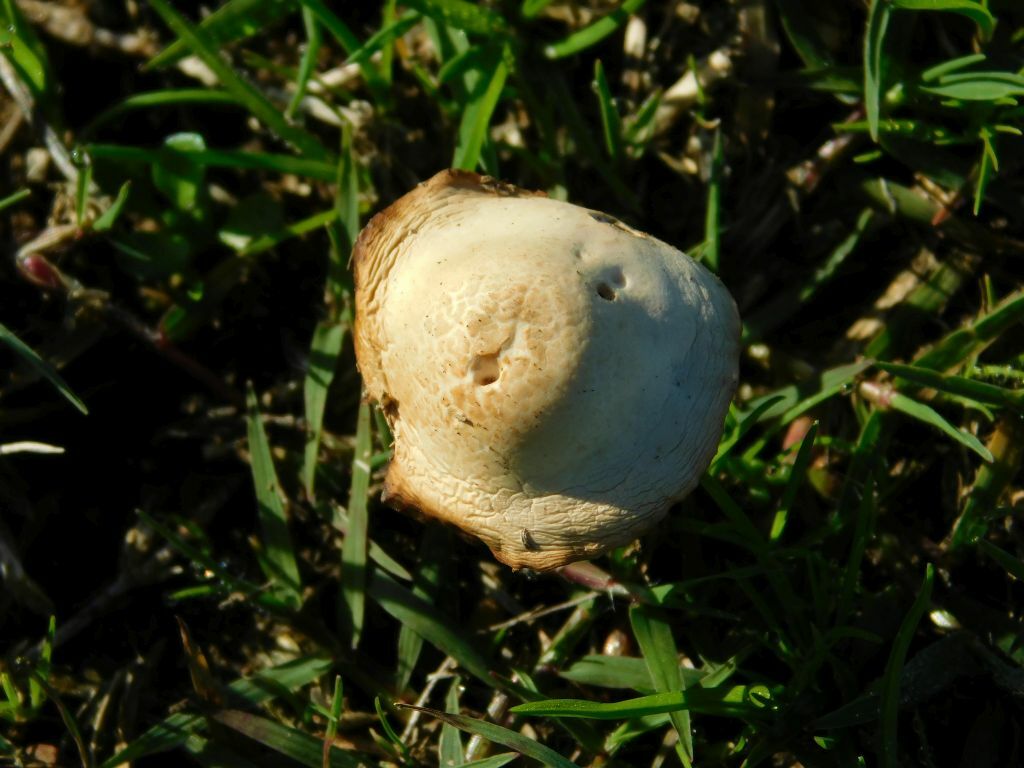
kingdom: Fungi
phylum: Basidiomycota
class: Agaricomycetes
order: Agaricales
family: Marasmiaceae
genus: Marasmius
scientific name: Marasmius oreades
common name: Fairy ring champignon
